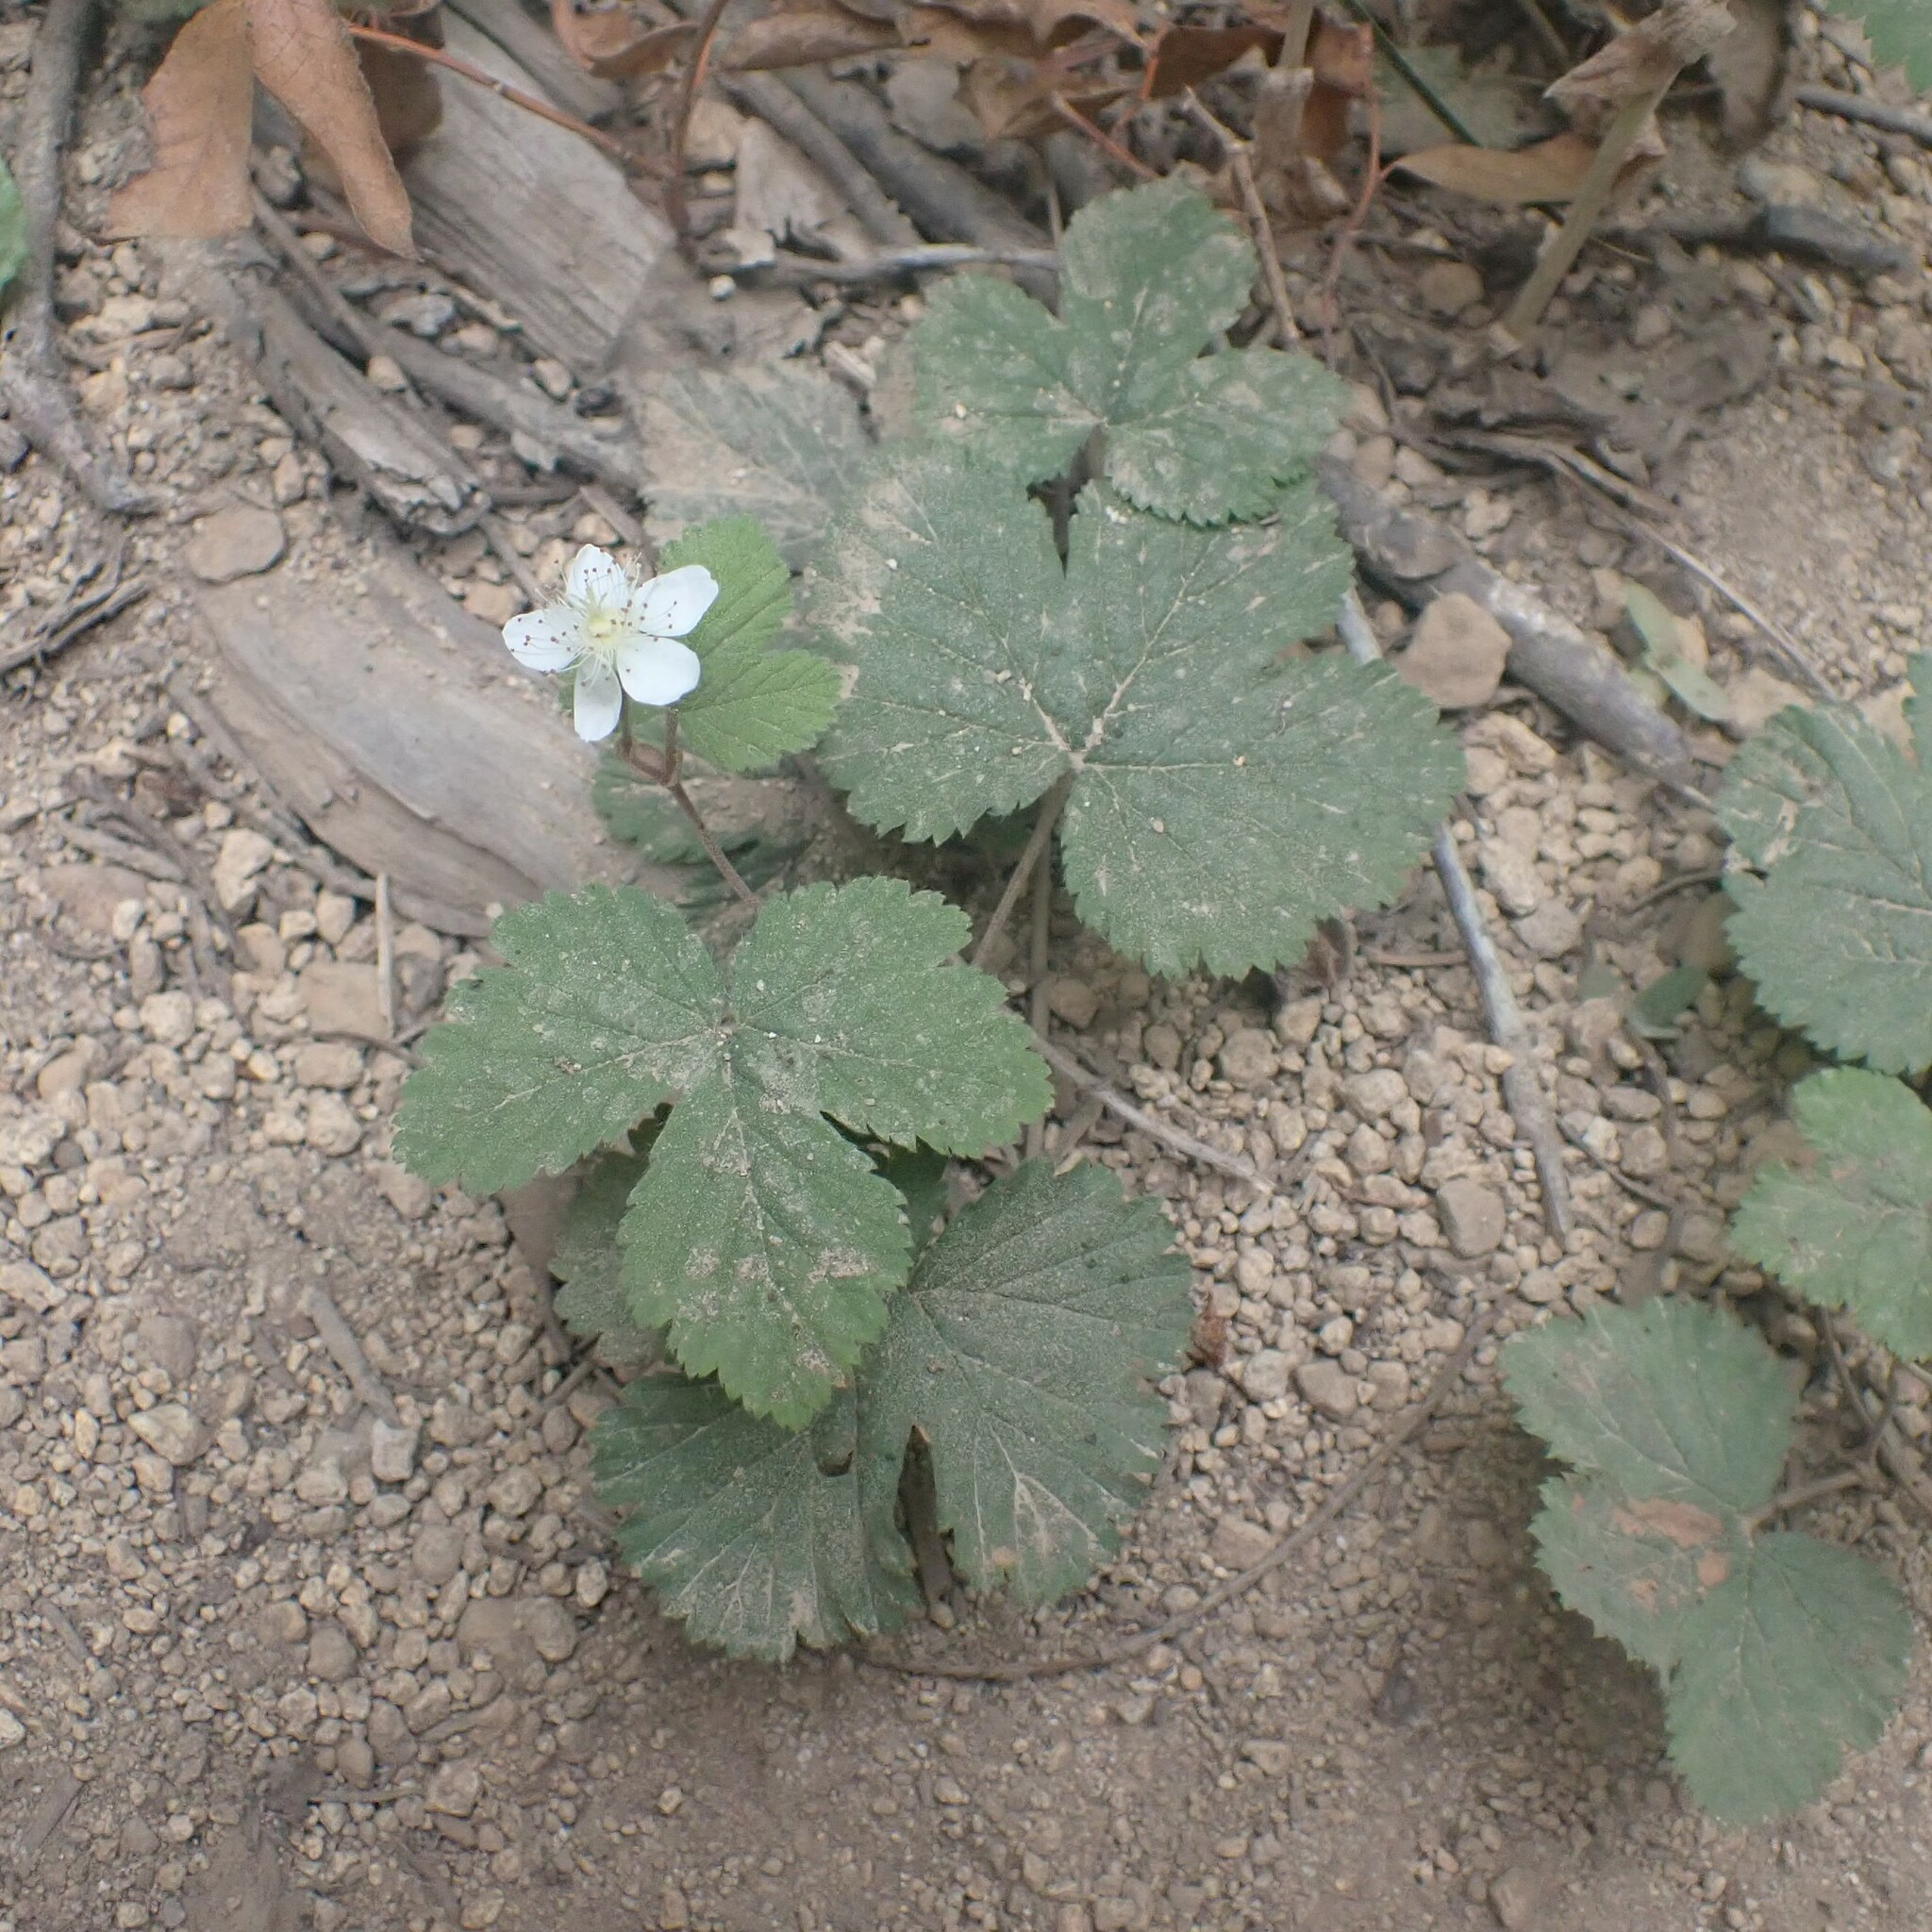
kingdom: Plantae
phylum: Tracheophyta
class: Magnoliopsida
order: Rosales
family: Rosaceae
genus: Rubus
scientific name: Rubus lasiococcus
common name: Dwarf bramble
